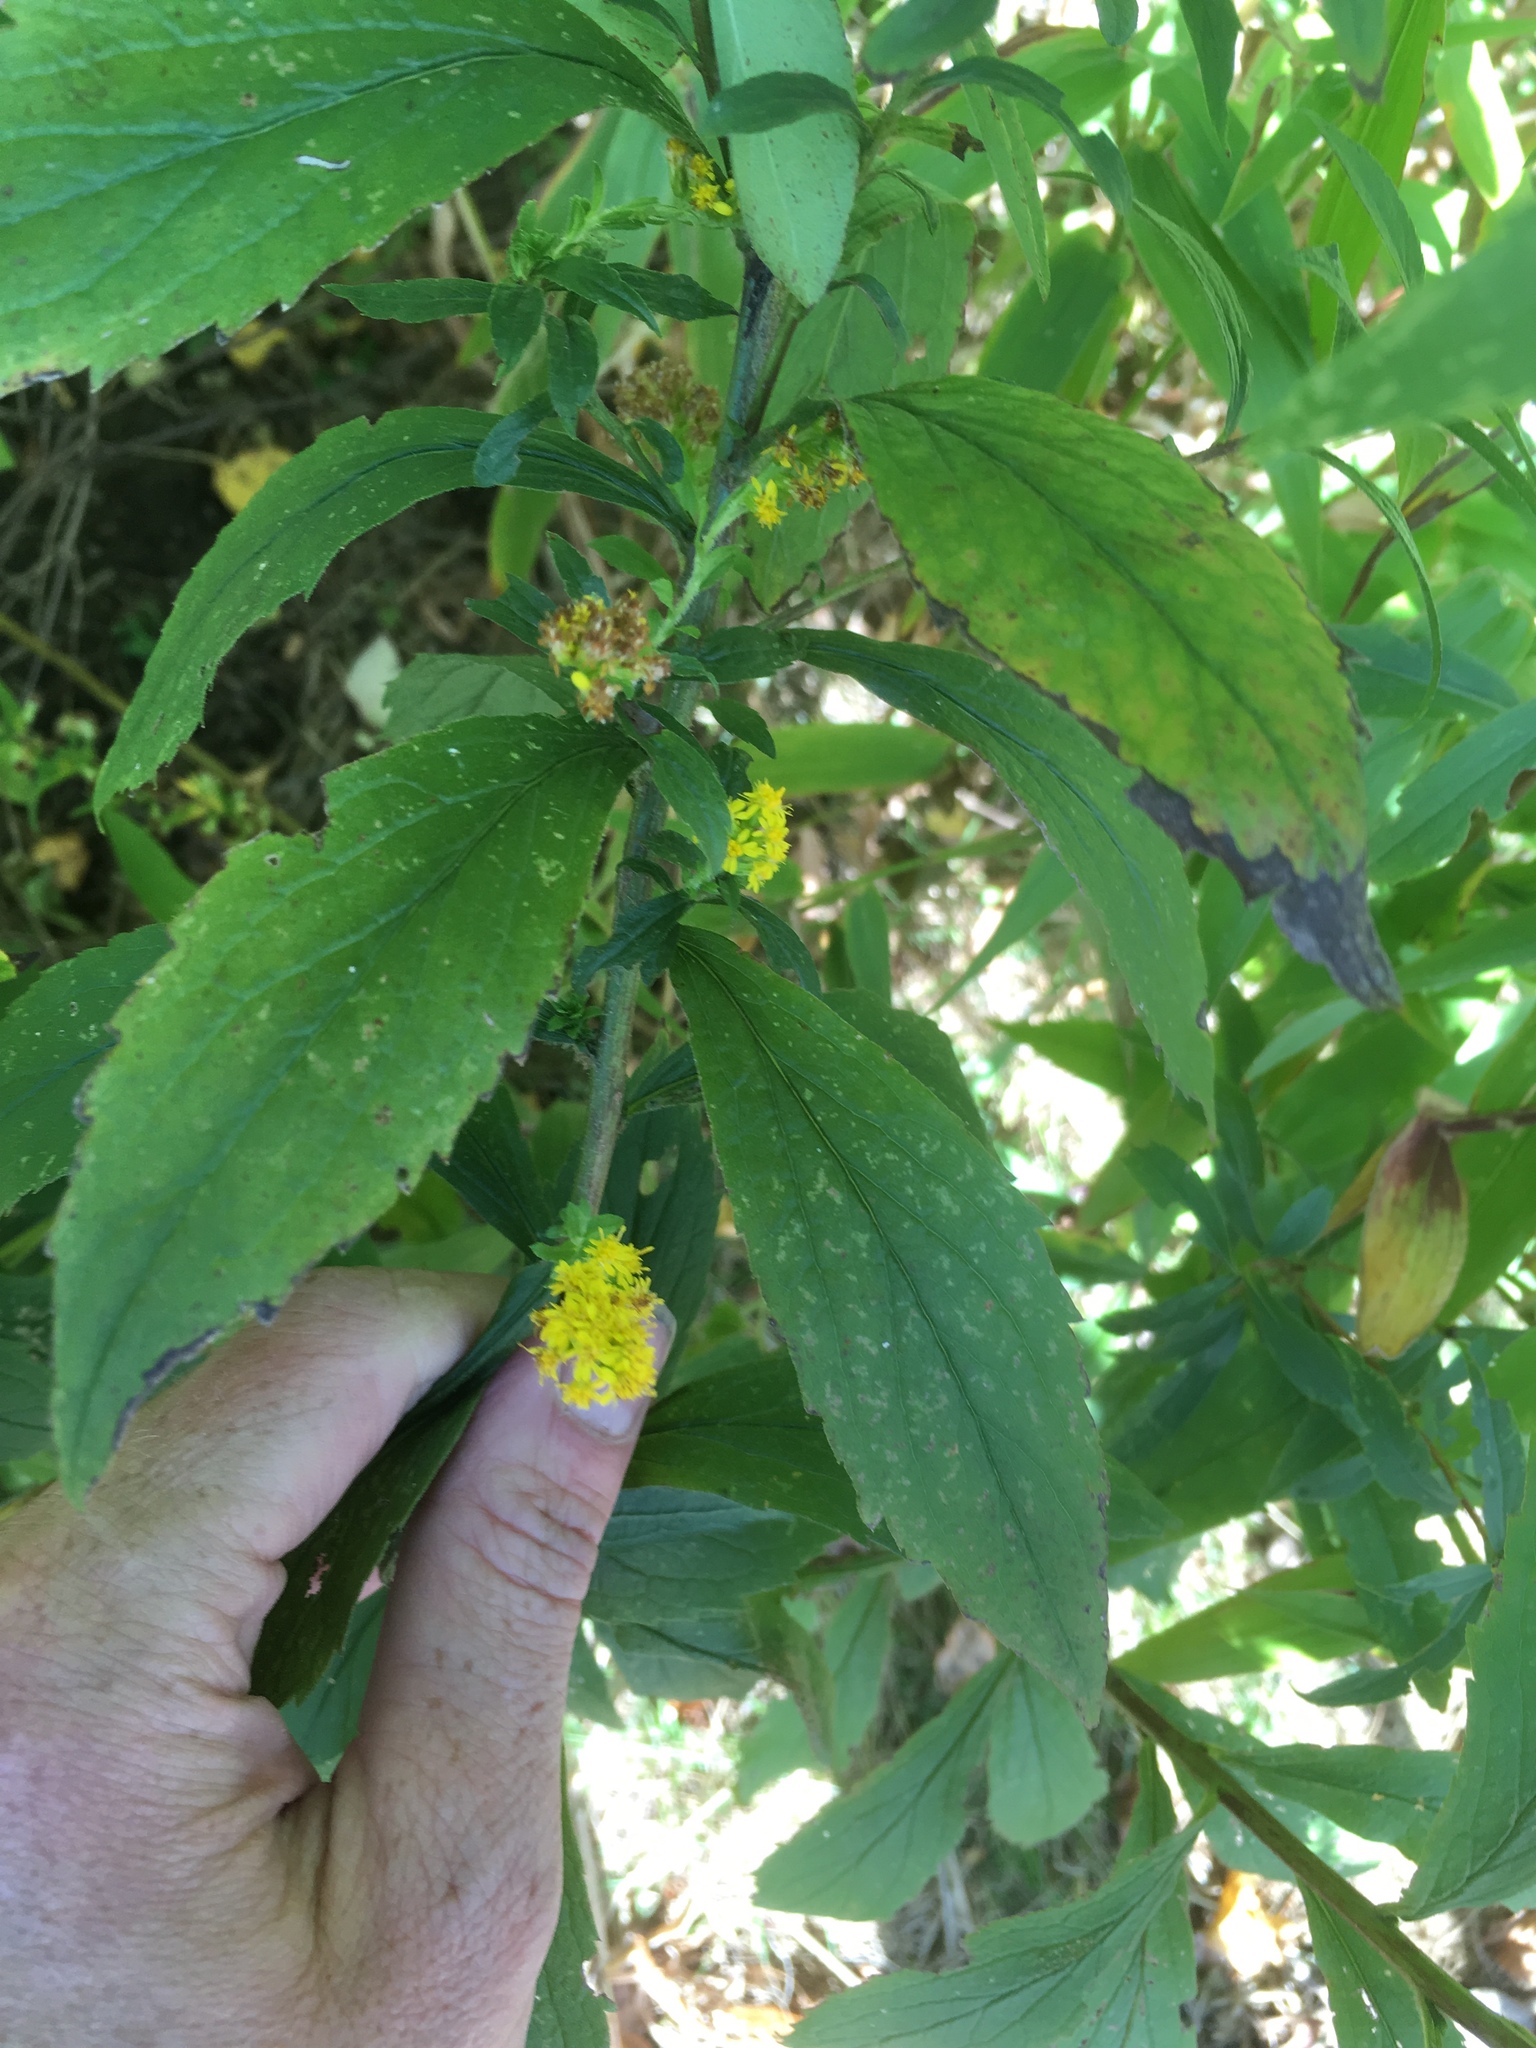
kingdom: Plantae
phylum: Tracheophyta
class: Magnoliopsida
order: Asterales
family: Asteraceae
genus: Solidago
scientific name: Solidago rugosa
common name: Rough-stemmed goldenrod
